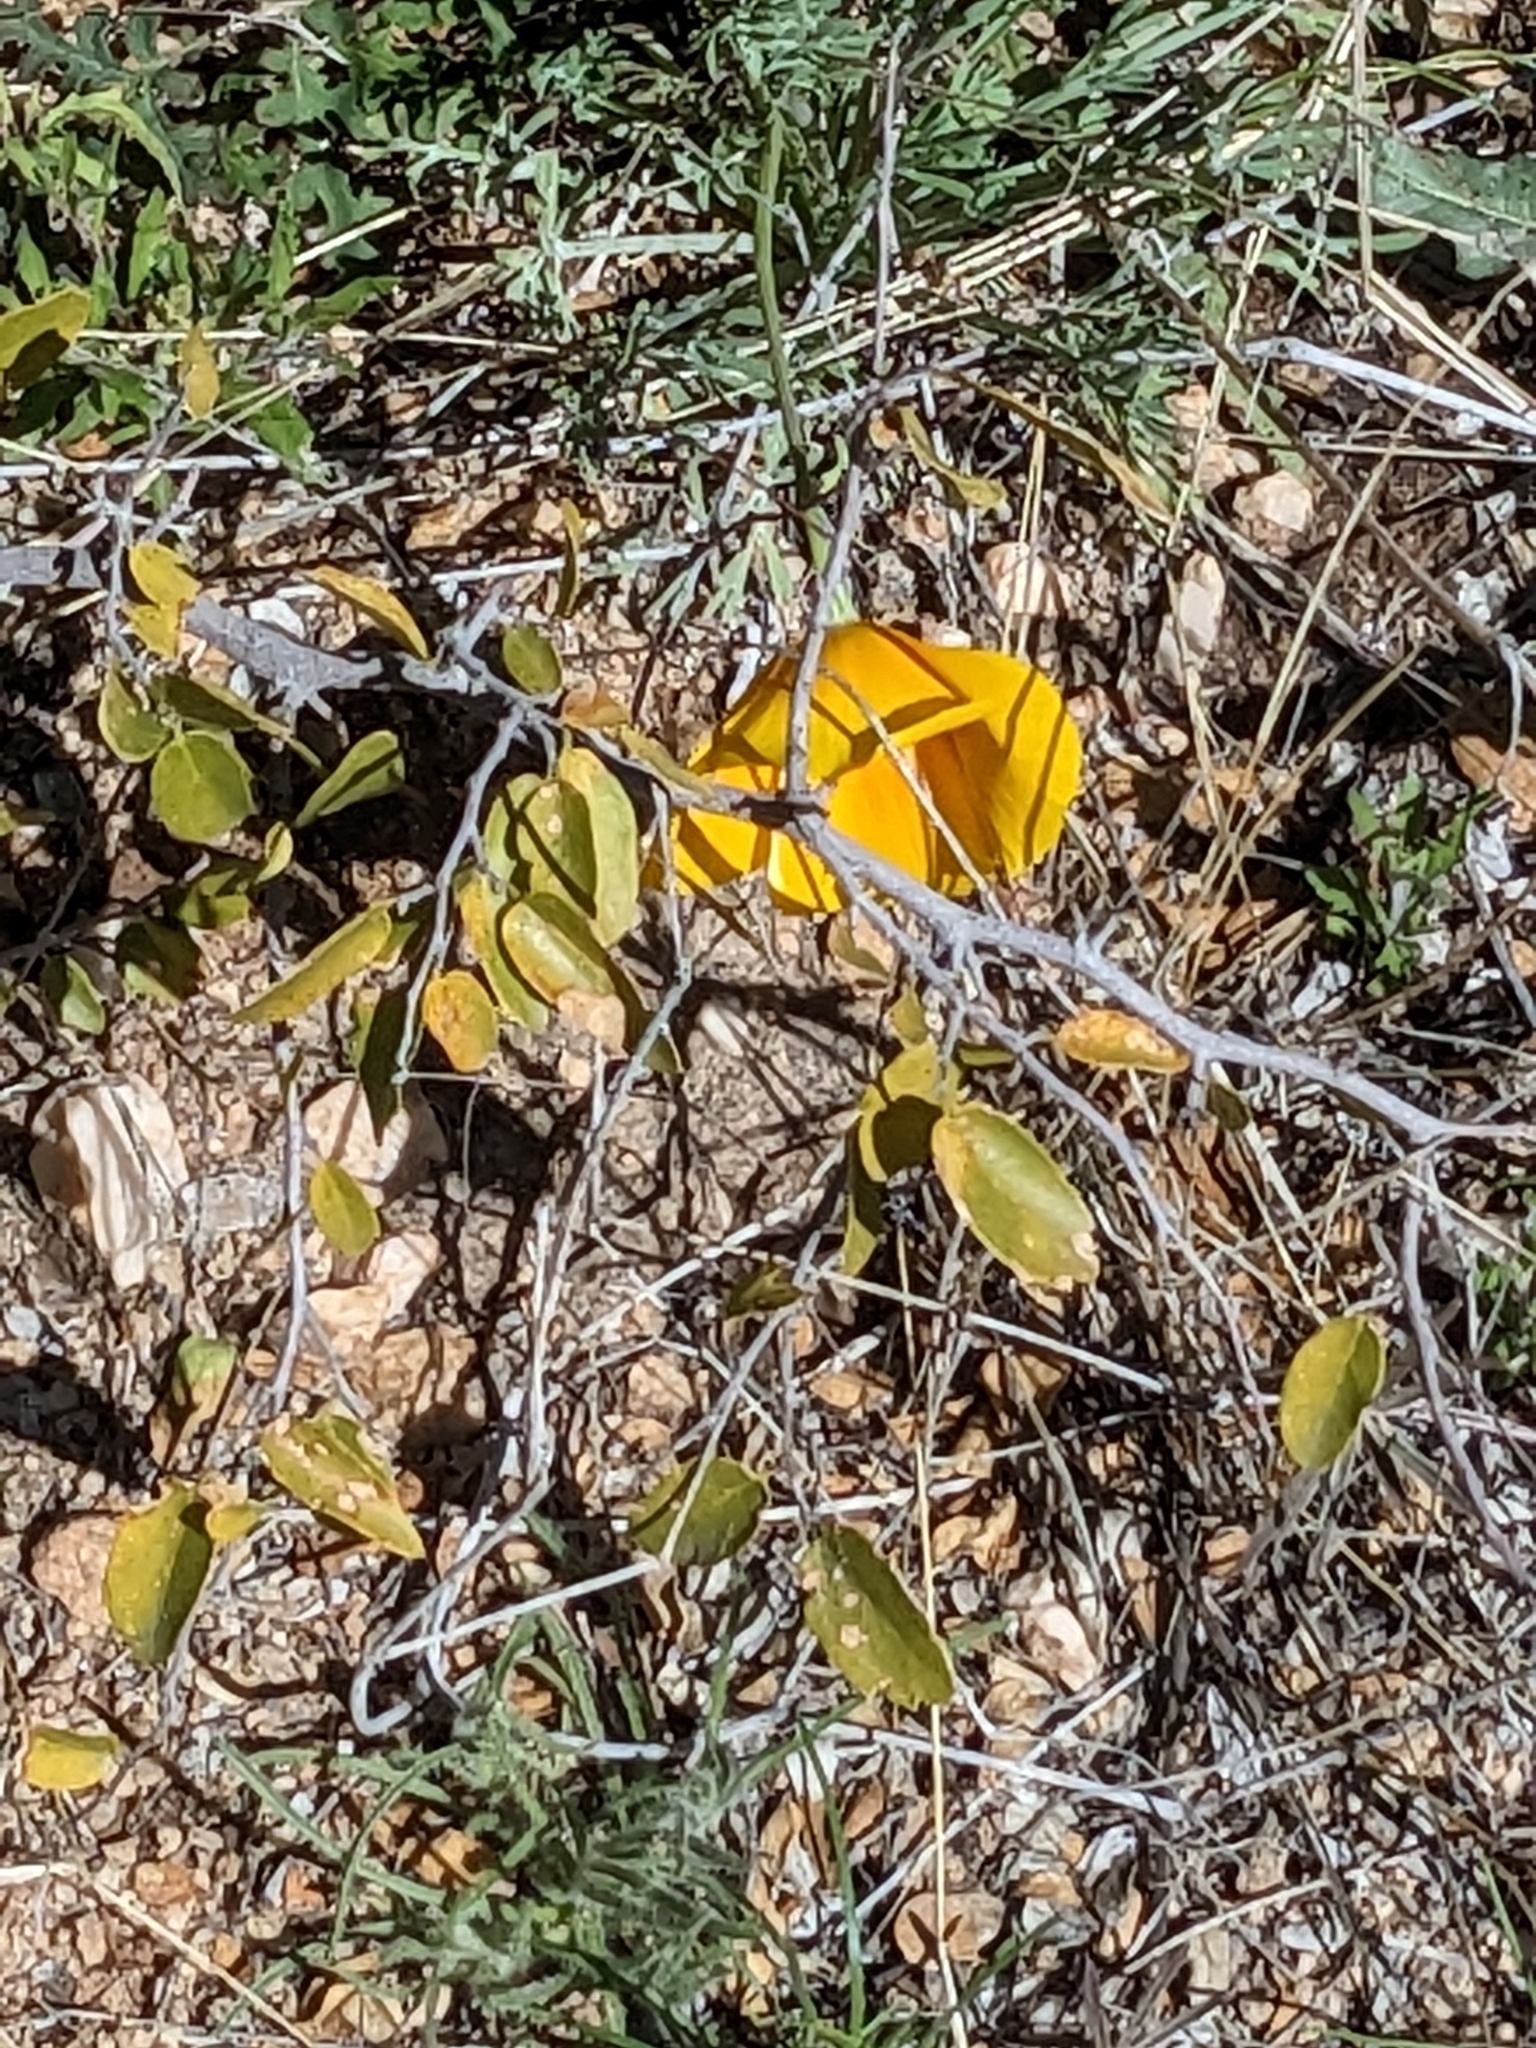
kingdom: Plantae
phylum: Tracheophyta
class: Magnoliopsida
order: Ranunculales
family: Papaveraceae
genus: Eschscholzia
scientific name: Eschscholzia californica
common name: California poppy
